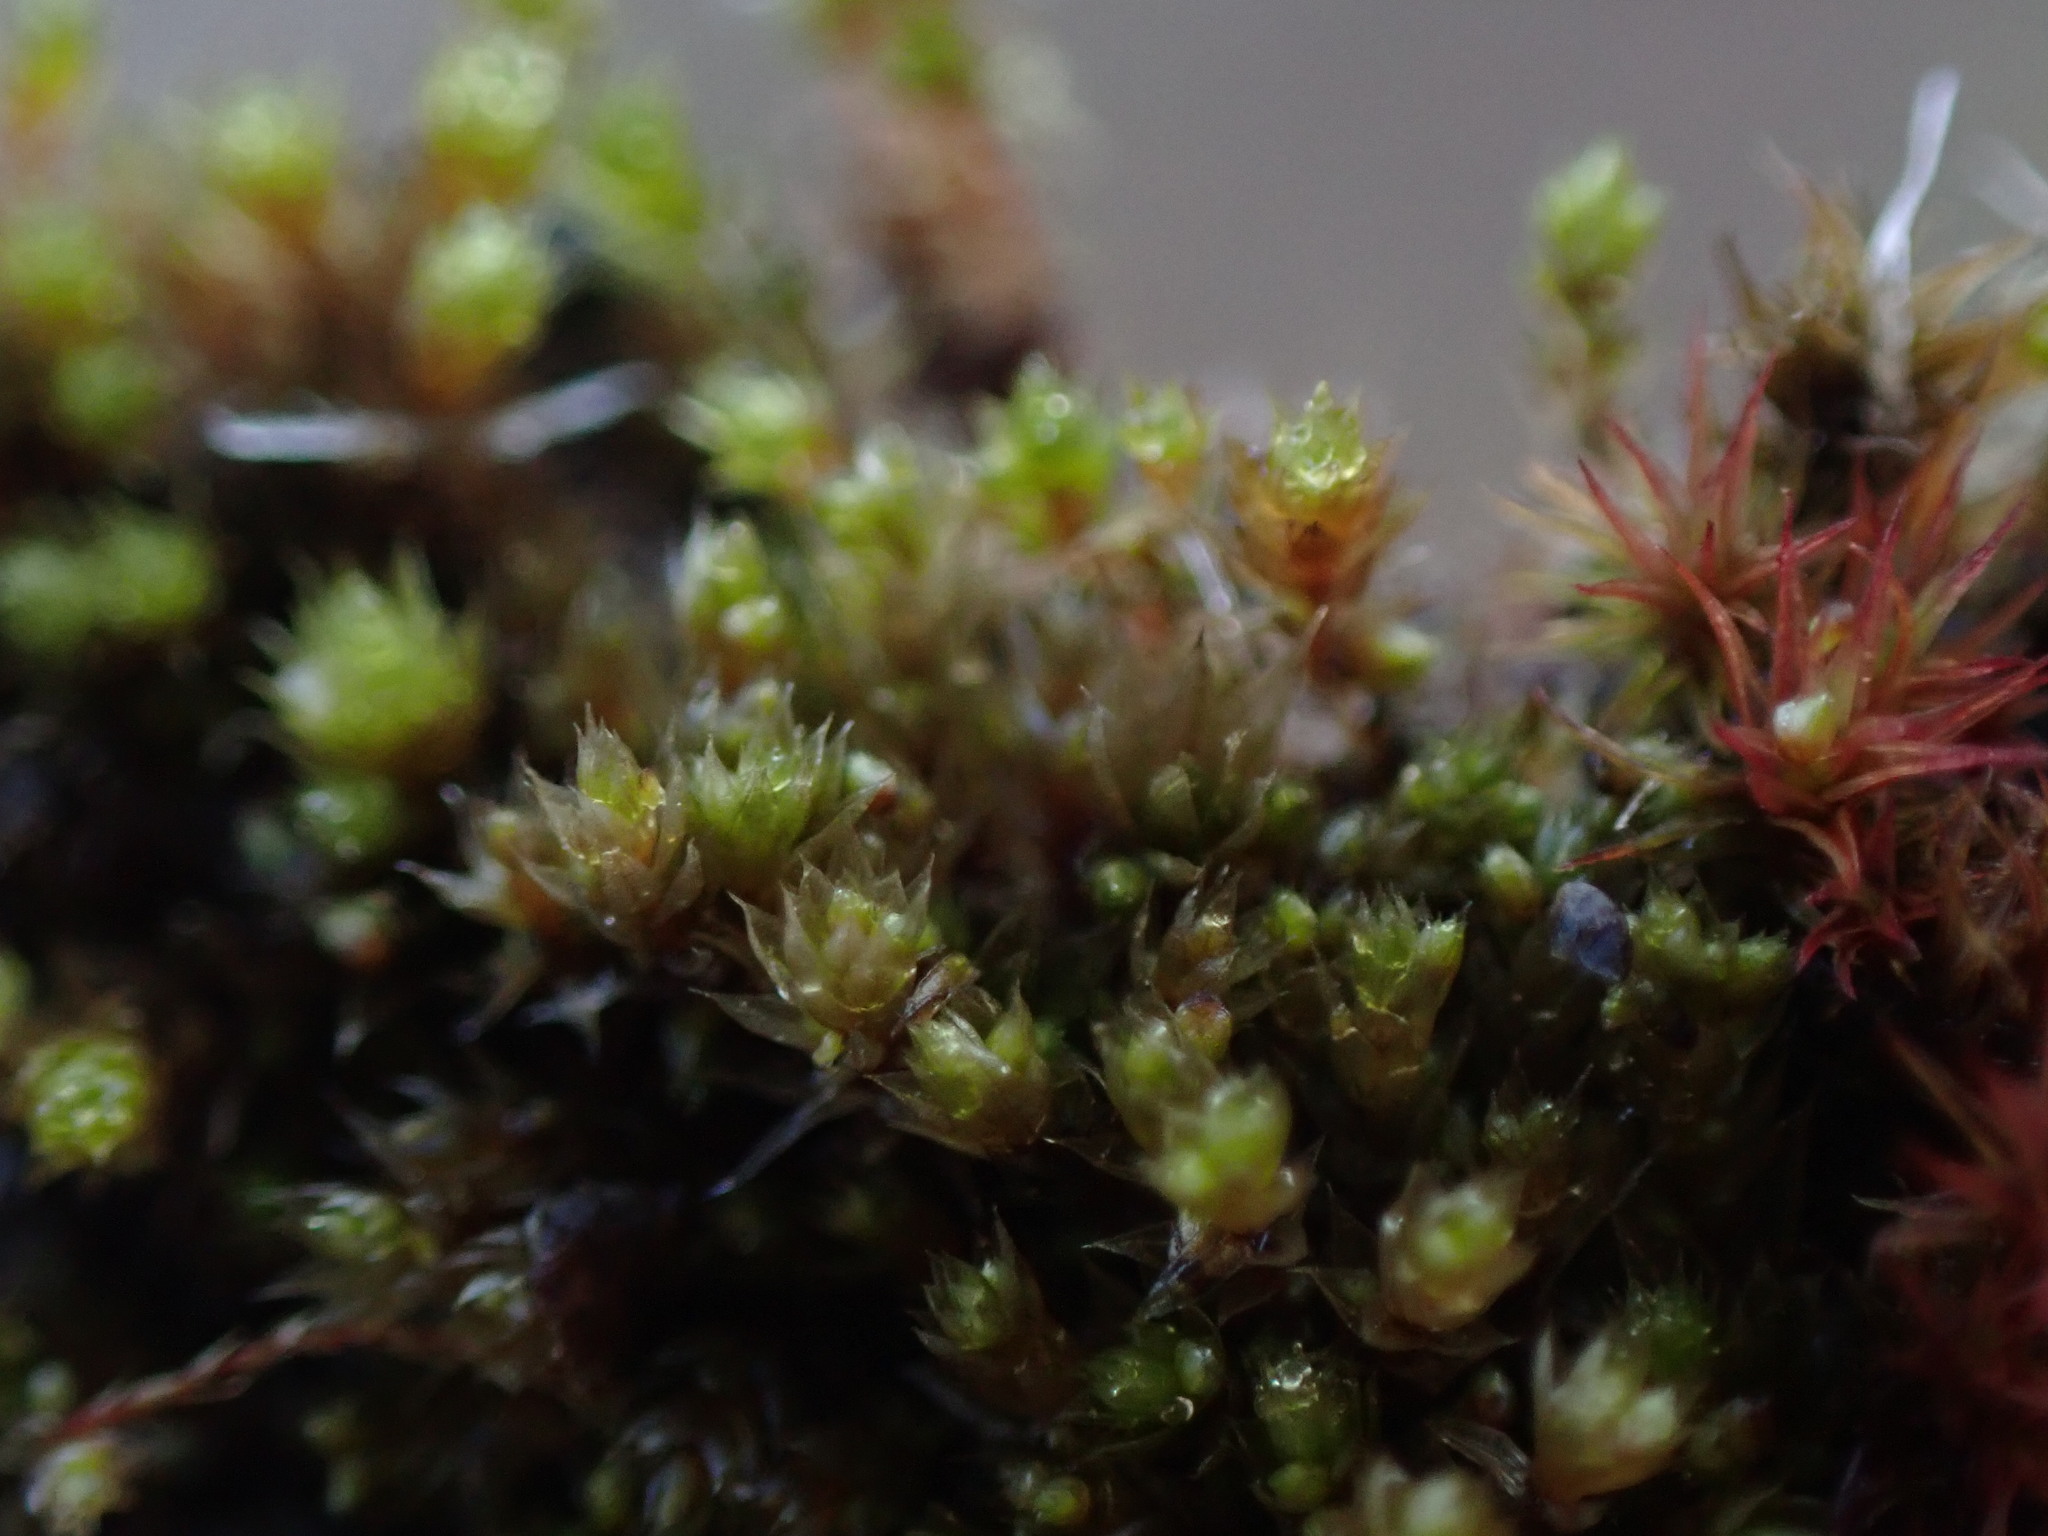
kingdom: Plantae
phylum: Bryophyta
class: Bryopsida
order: Bryales
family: Bryaceae
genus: Gemmabryum
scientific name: Gemmabryum dichotomum
